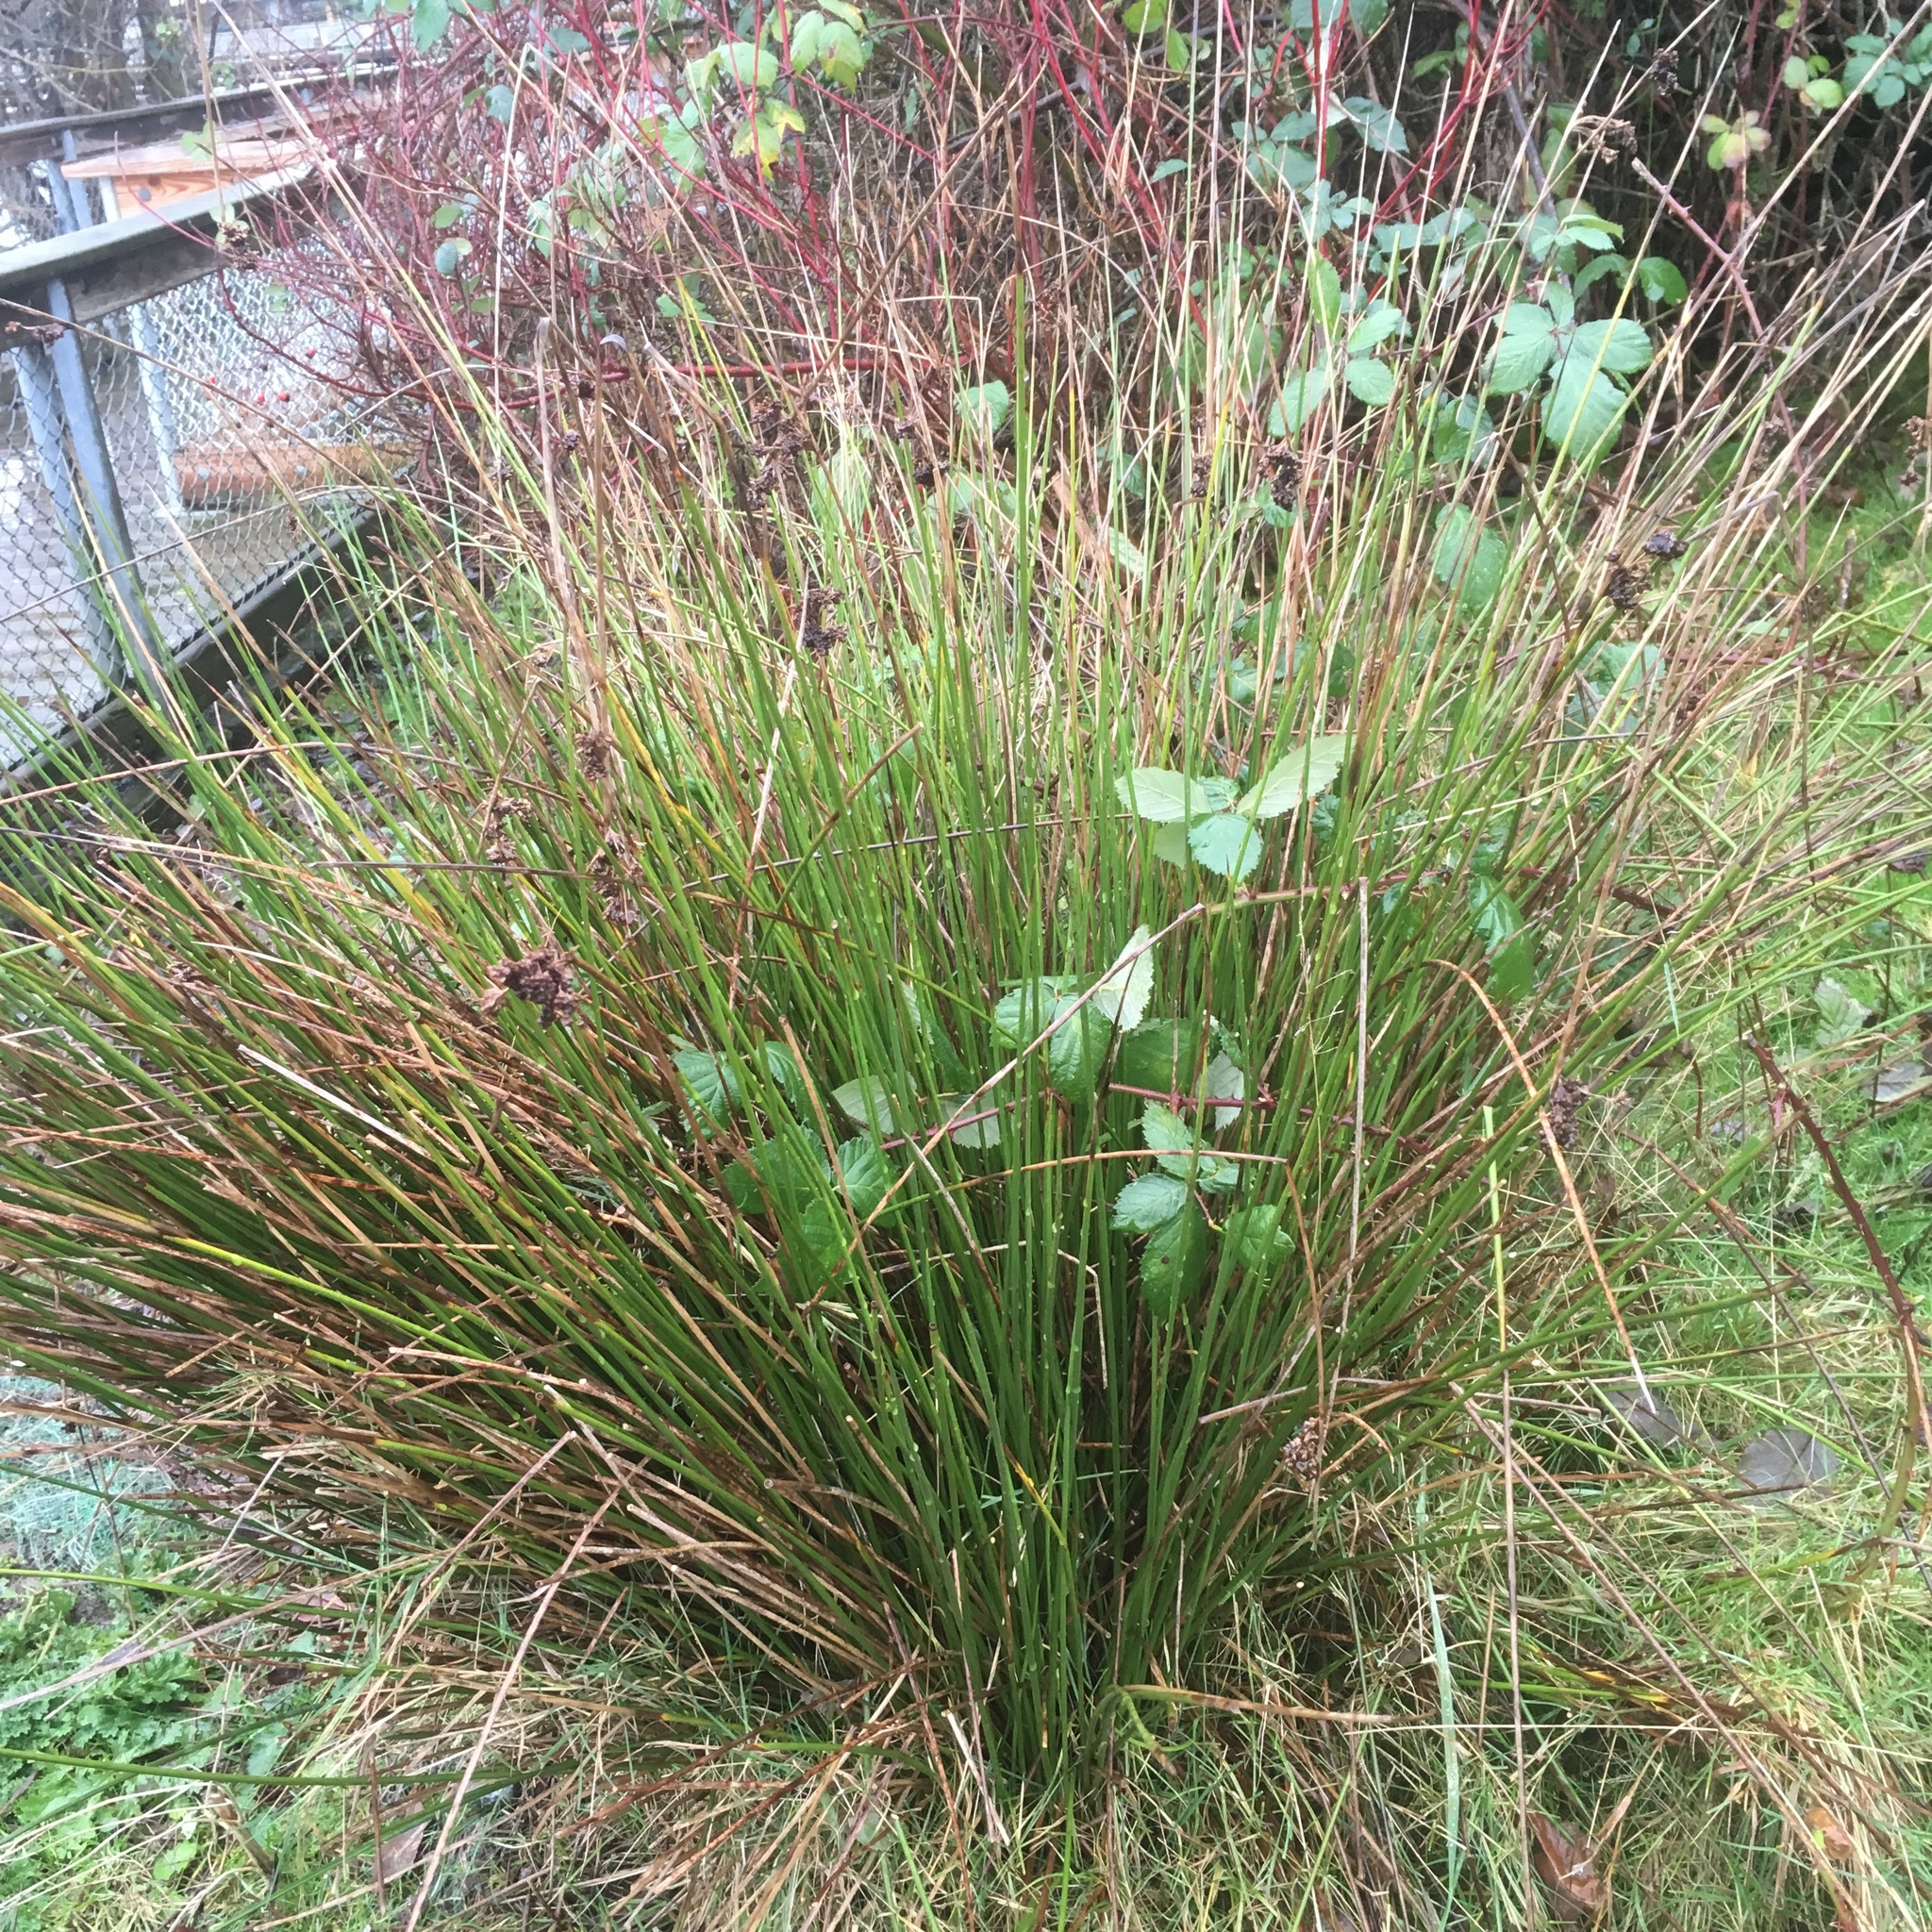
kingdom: Plantae
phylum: Tracheophyta
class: Liliopsida
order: Poales
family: Juncaceae
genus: Juncus
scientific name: Juncus effusus
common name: Soft rush
